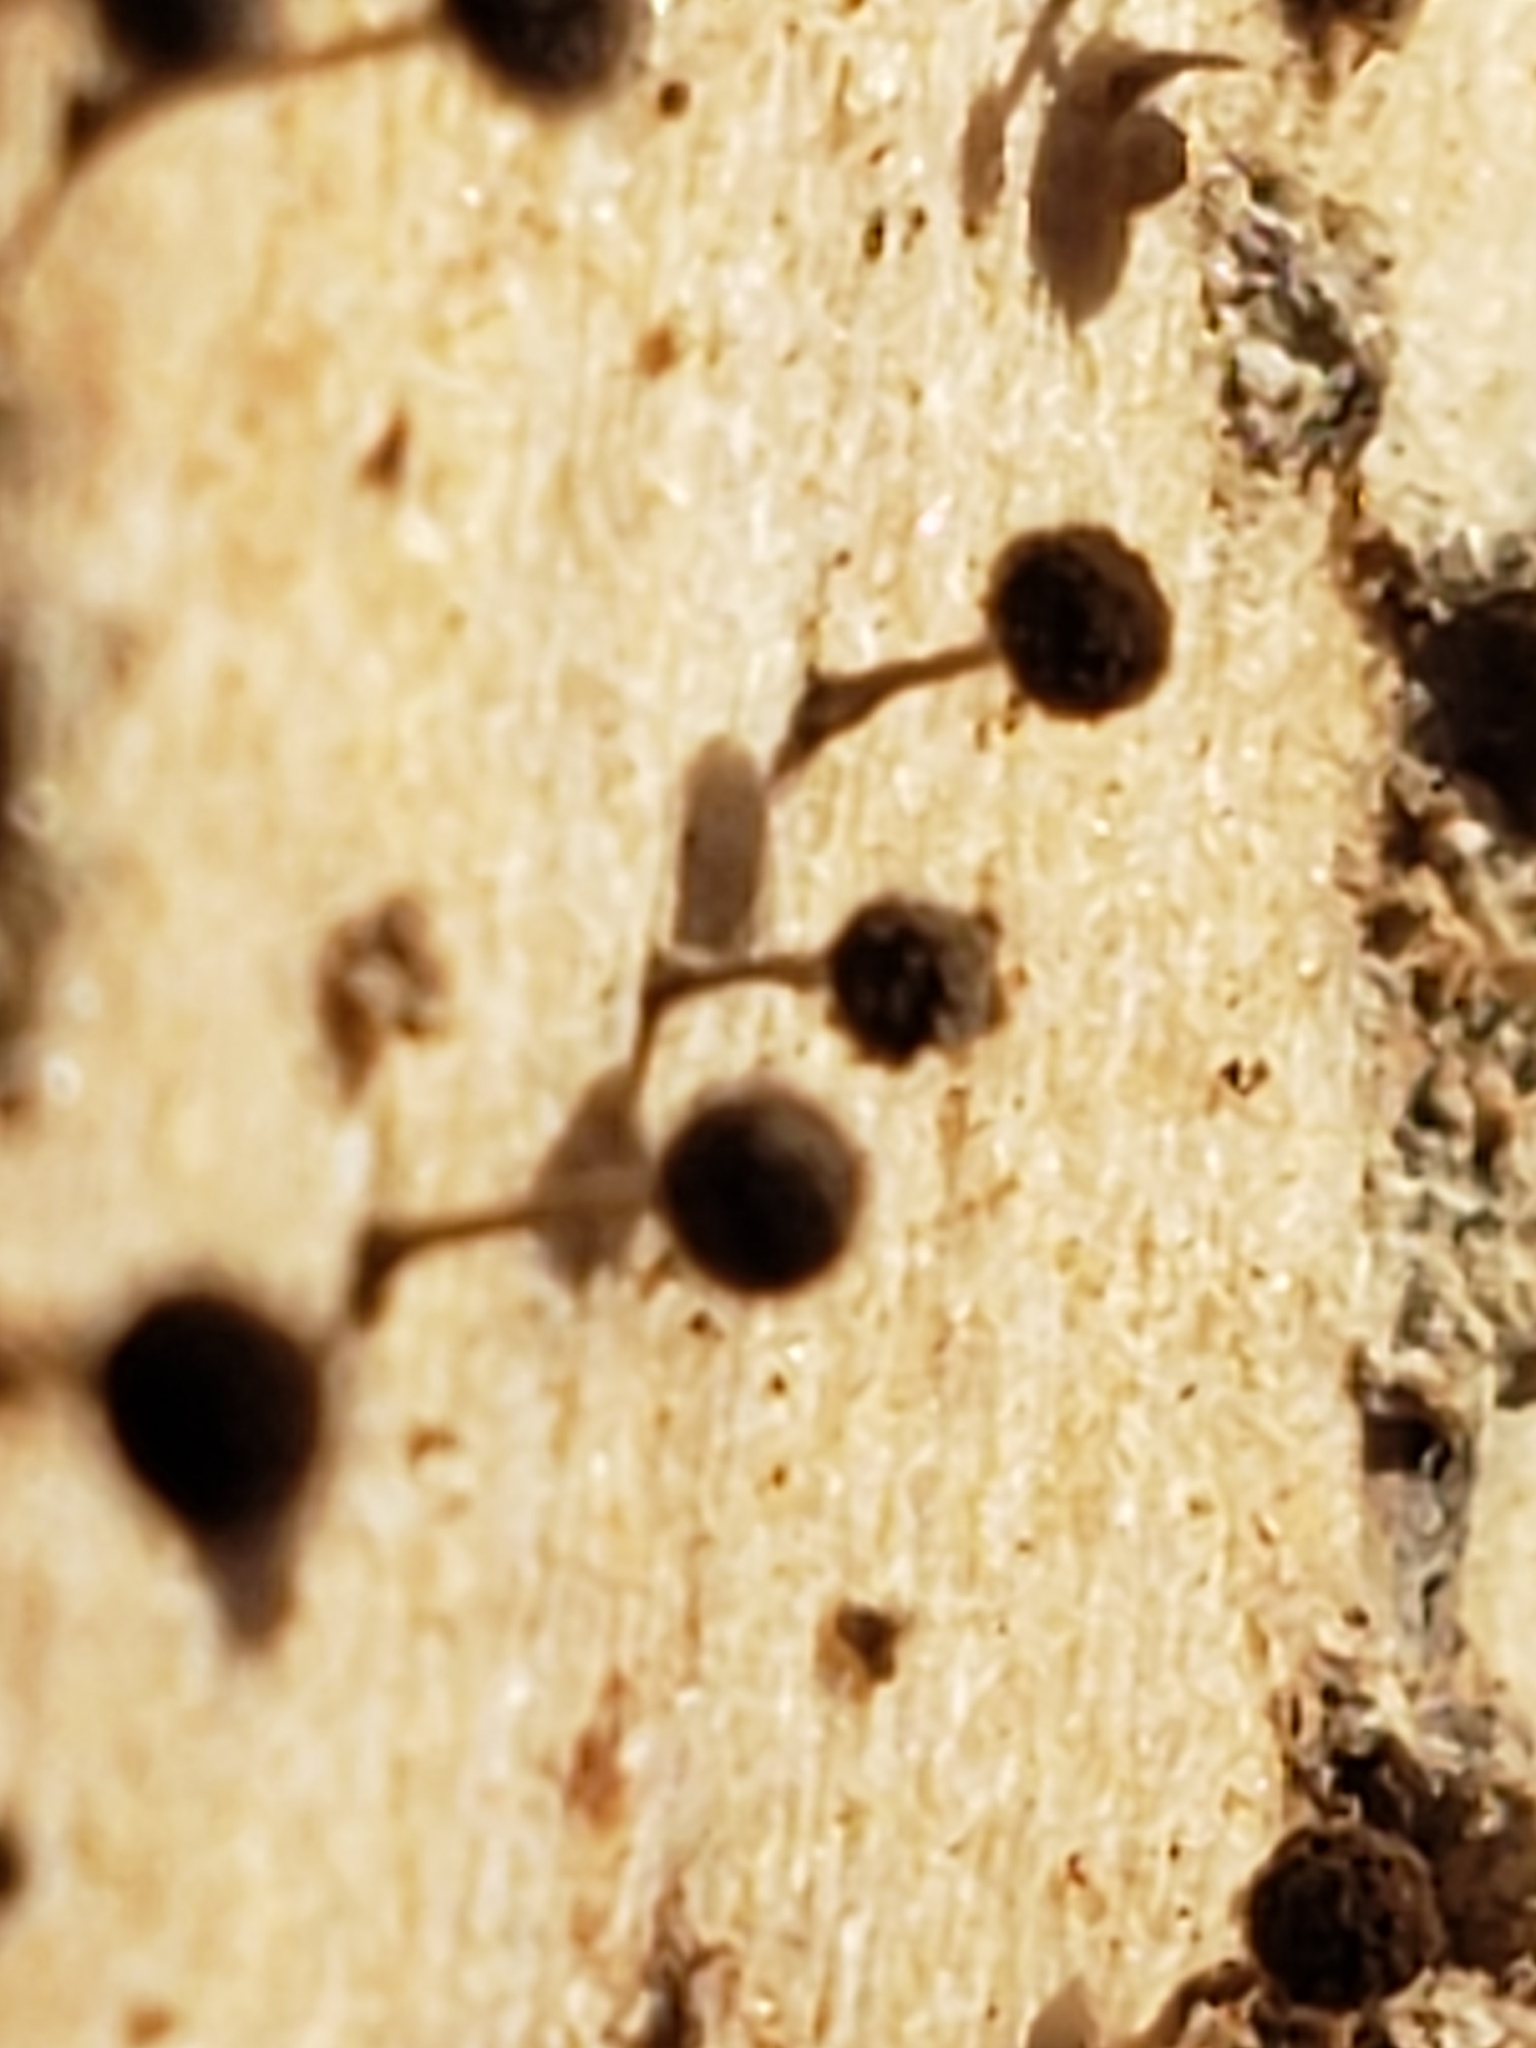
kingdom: Fungi
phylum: Basidiomycota
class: Atractiellomycetes
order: Atractiellales
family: Phleogenaceae
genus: Phleogena
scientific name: Phleogena faginea
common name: Fenugreek stalkball
